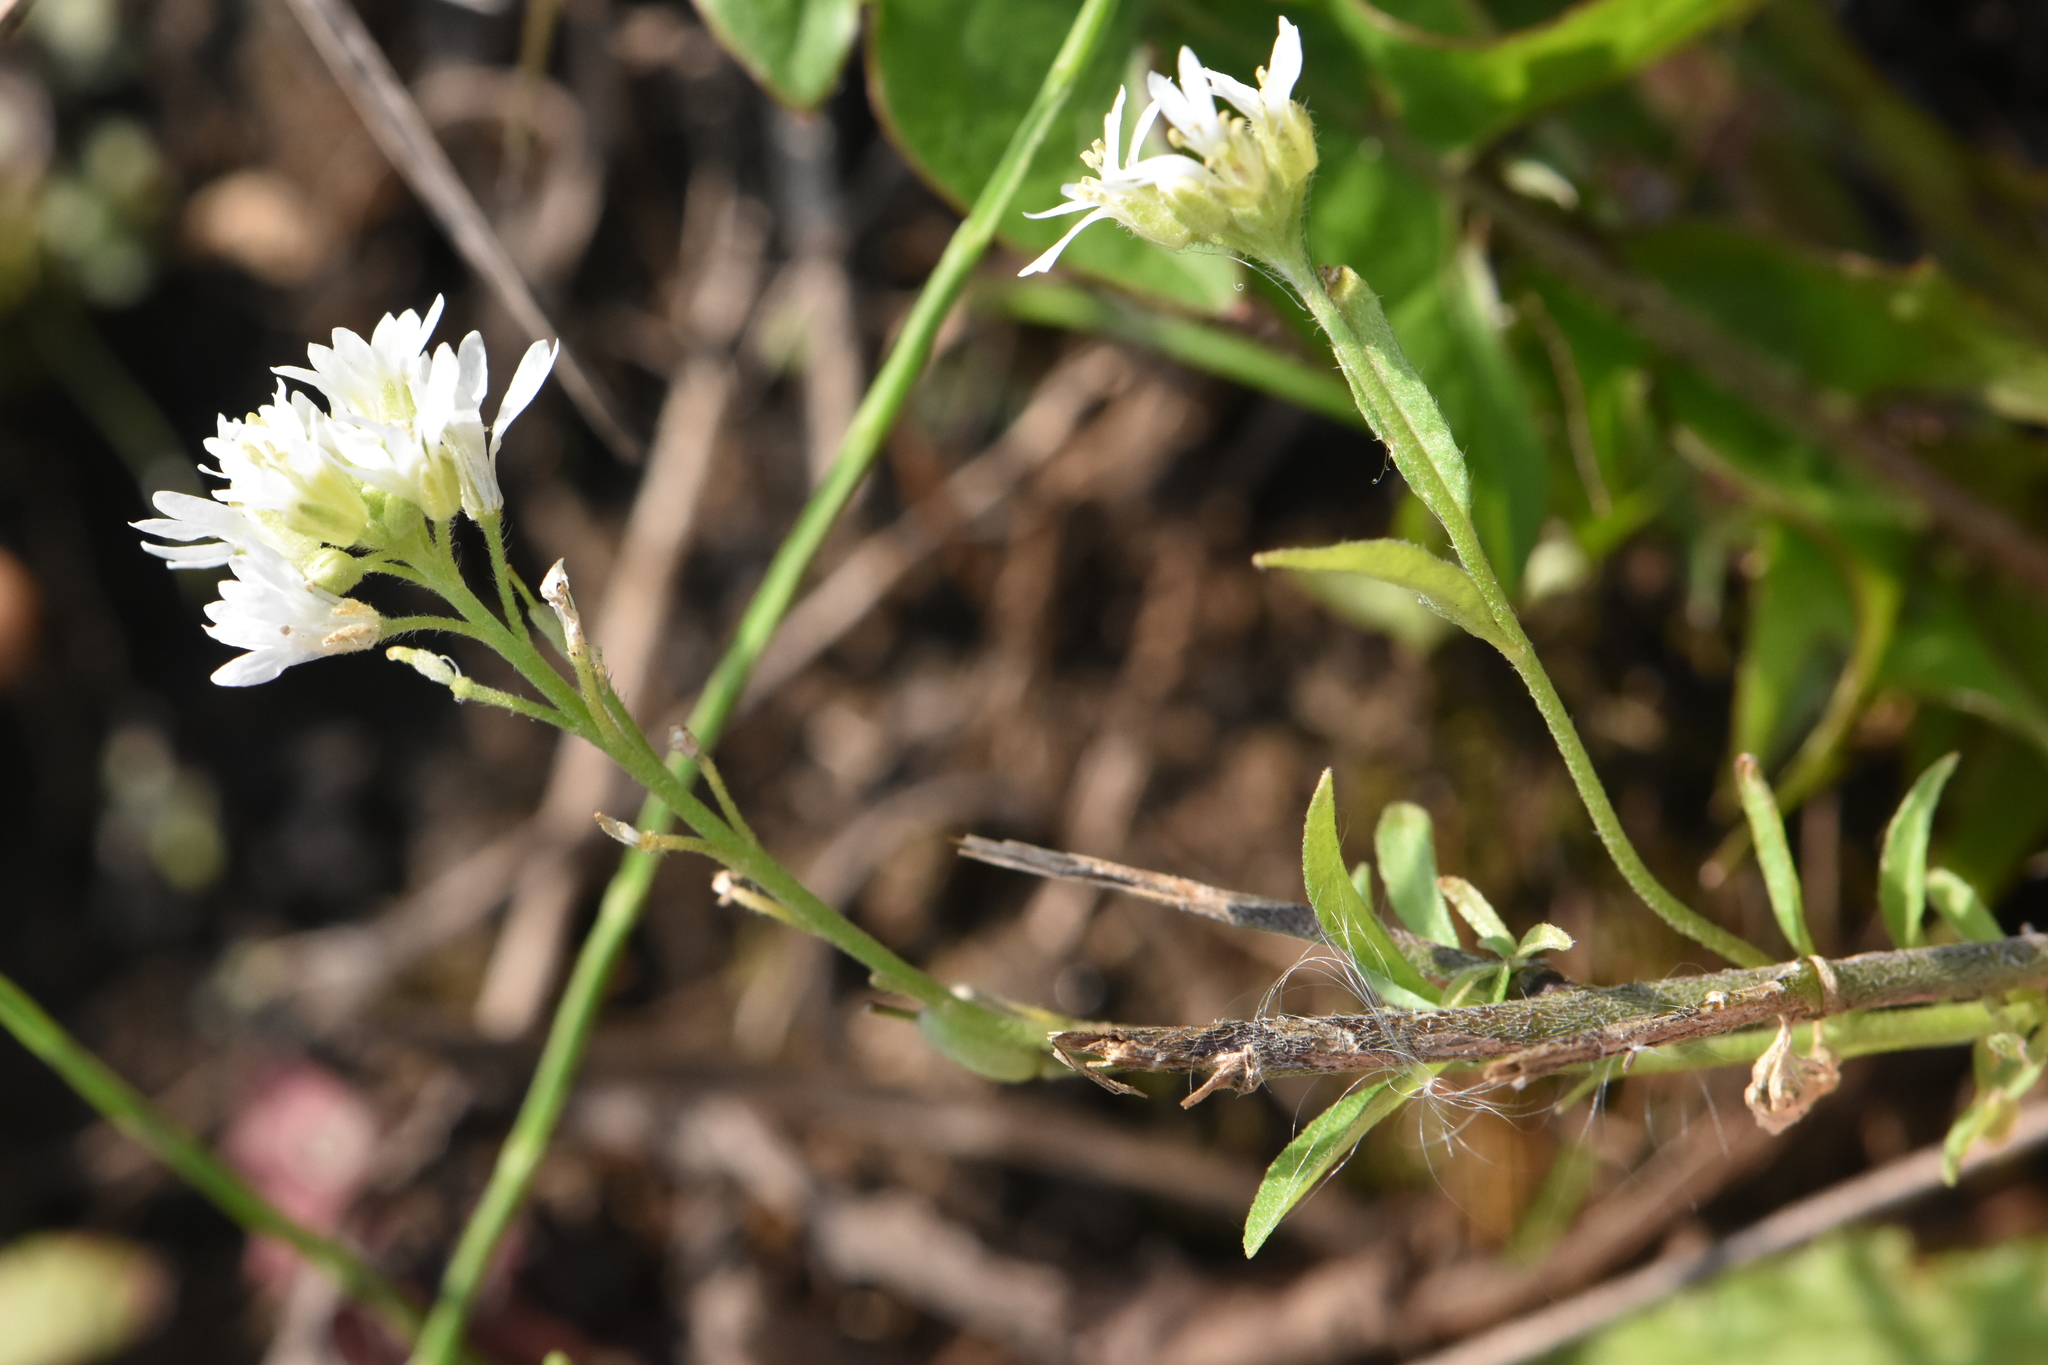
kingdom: Plantae
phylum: Tracheophyta
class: Magnoliopsida
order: Brassicales
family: Brassicaceae
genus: Berteroa
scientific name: Berteroa incana
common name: Hoary alison
